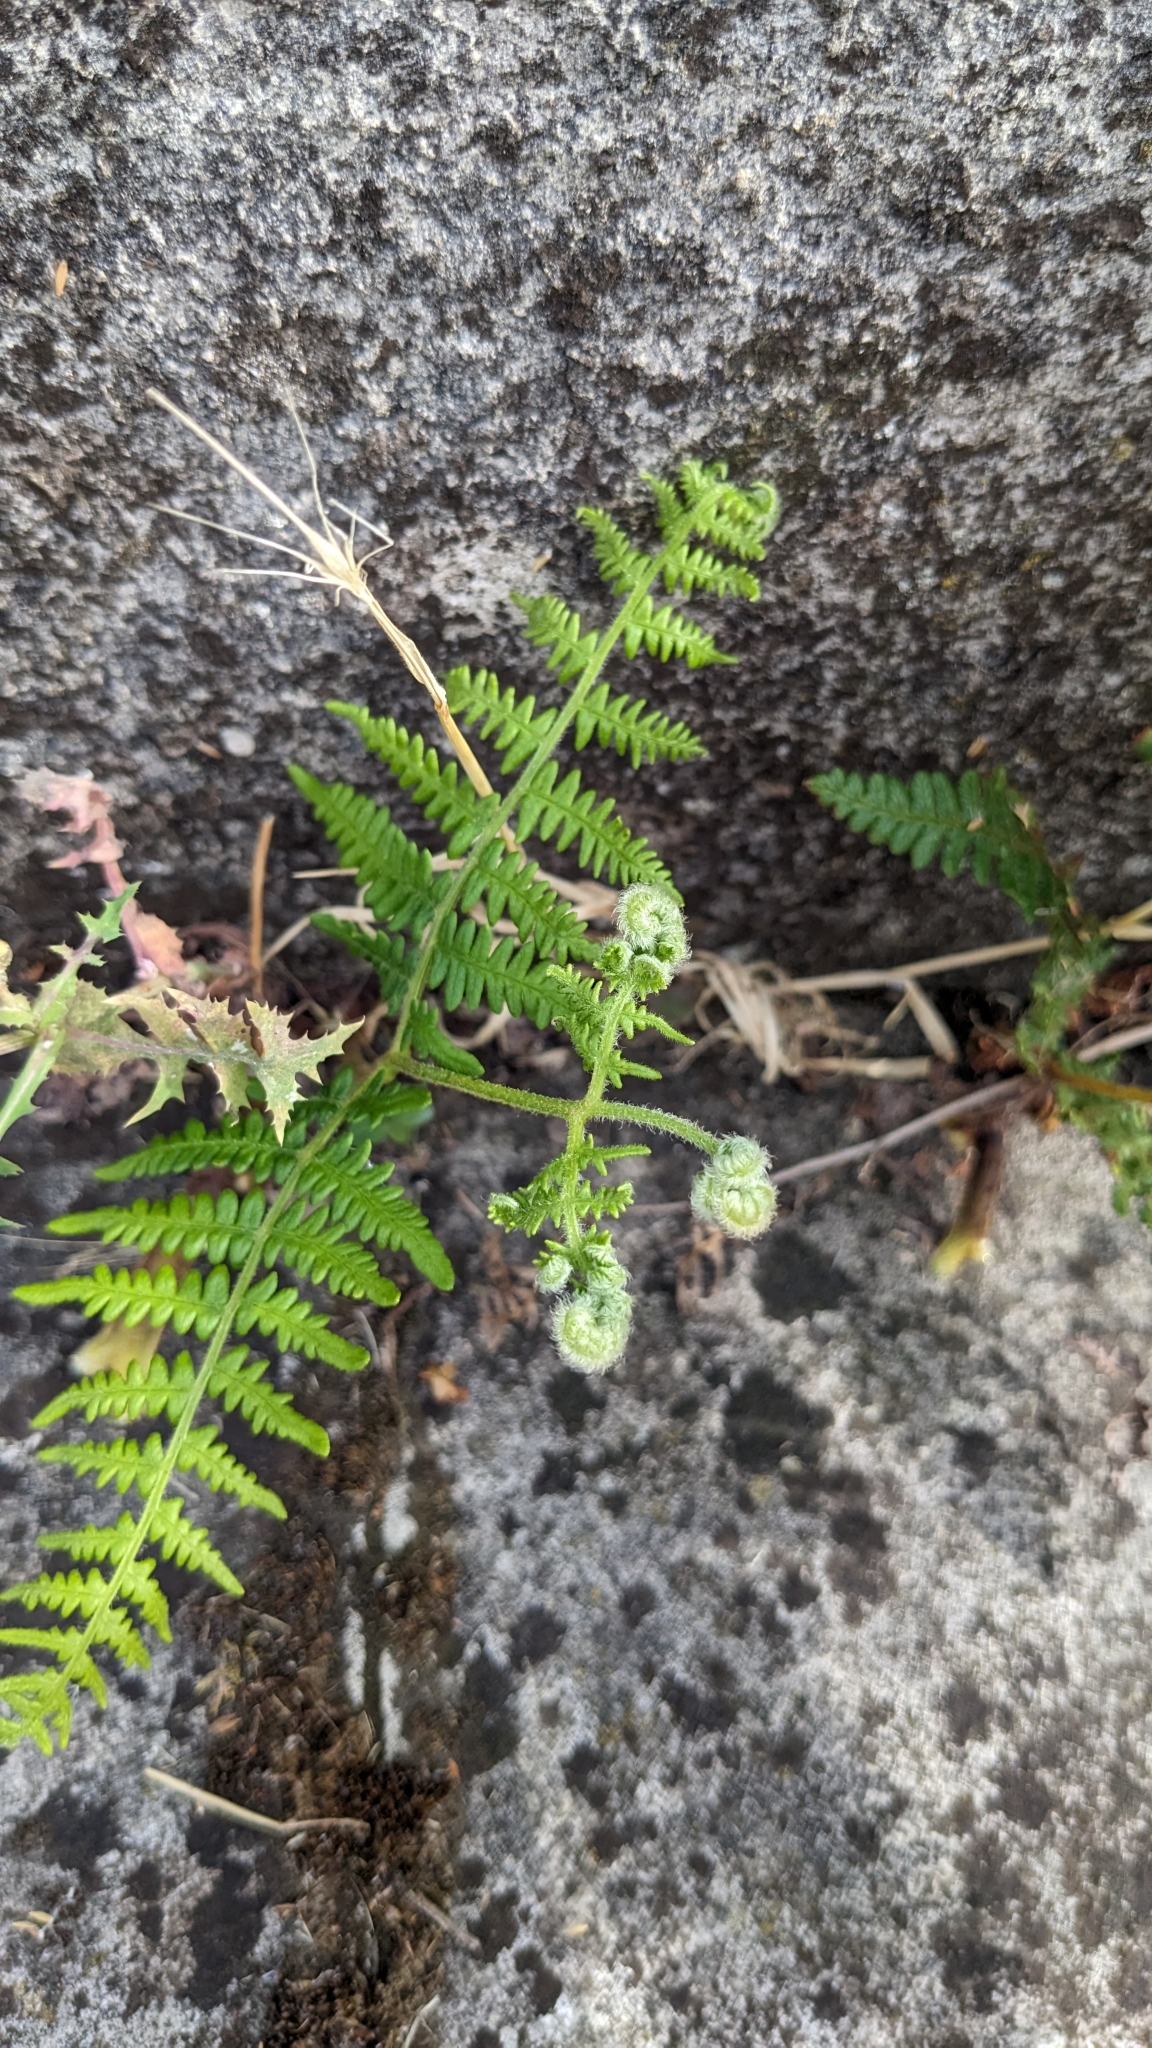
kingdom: Plantae
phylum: Tracheophyta
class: Polypodiopsida
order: Polypodiales
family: Dennstaedtiaceae
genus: Pteridium
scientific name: Pteridium aquilinum
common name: Bracken
